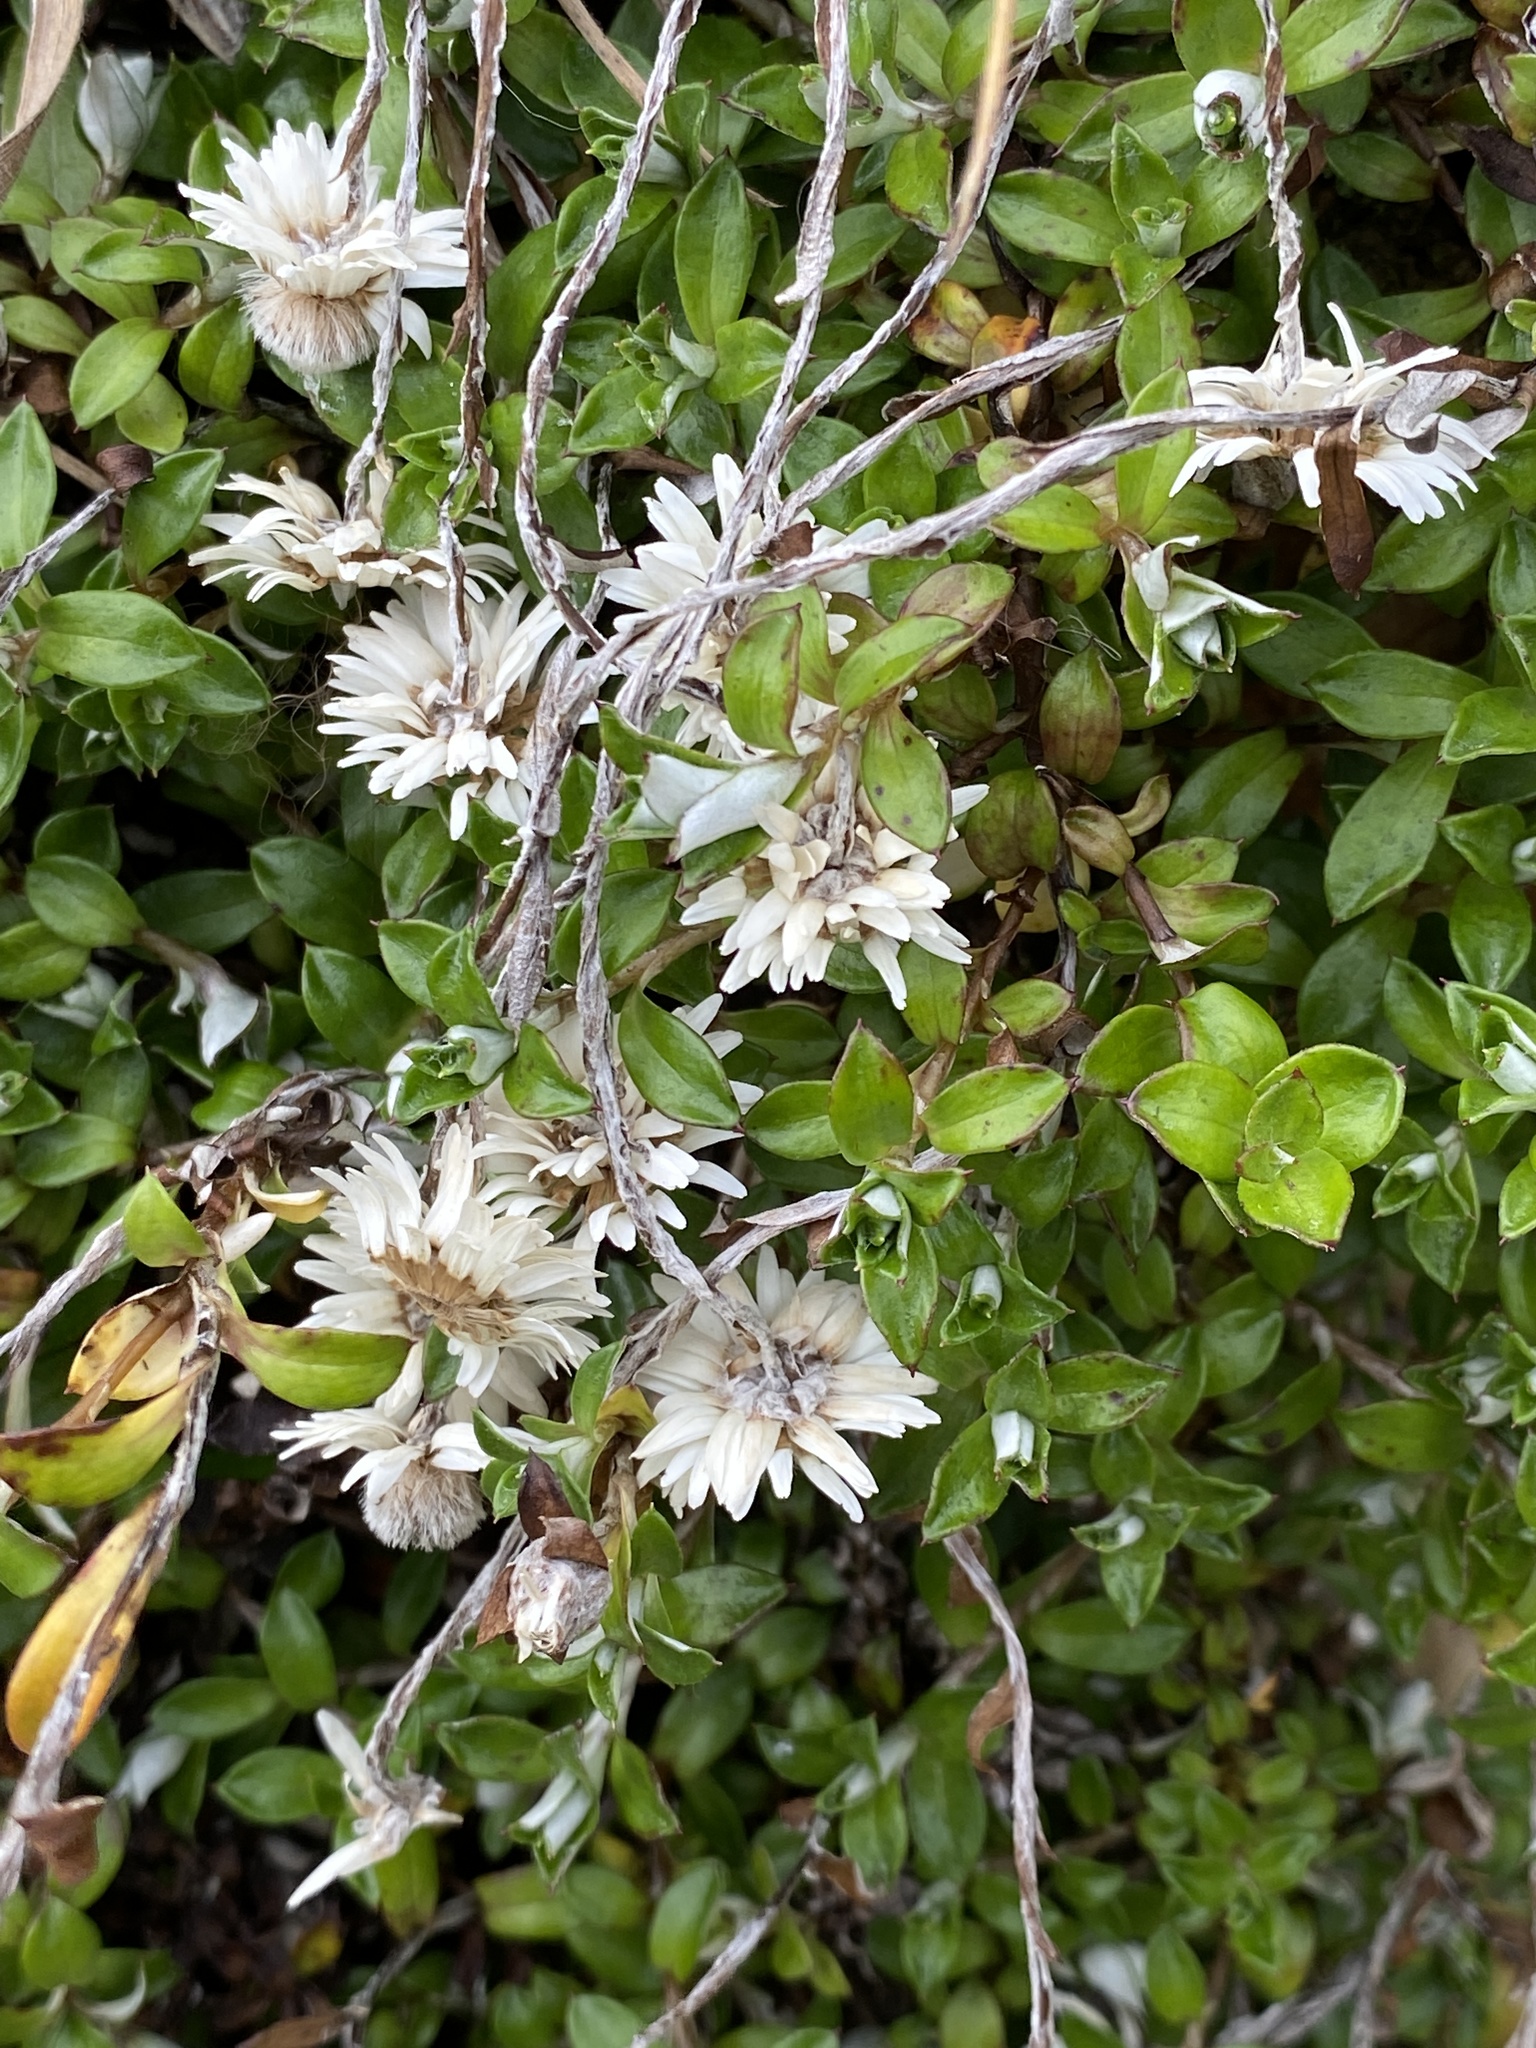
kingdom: Plantae
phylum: Tracheophyta
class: Magnoliopsida
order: Asterales
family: Asteraceae
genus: Anaphalioides
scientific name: Anaphalioides bellidioides
